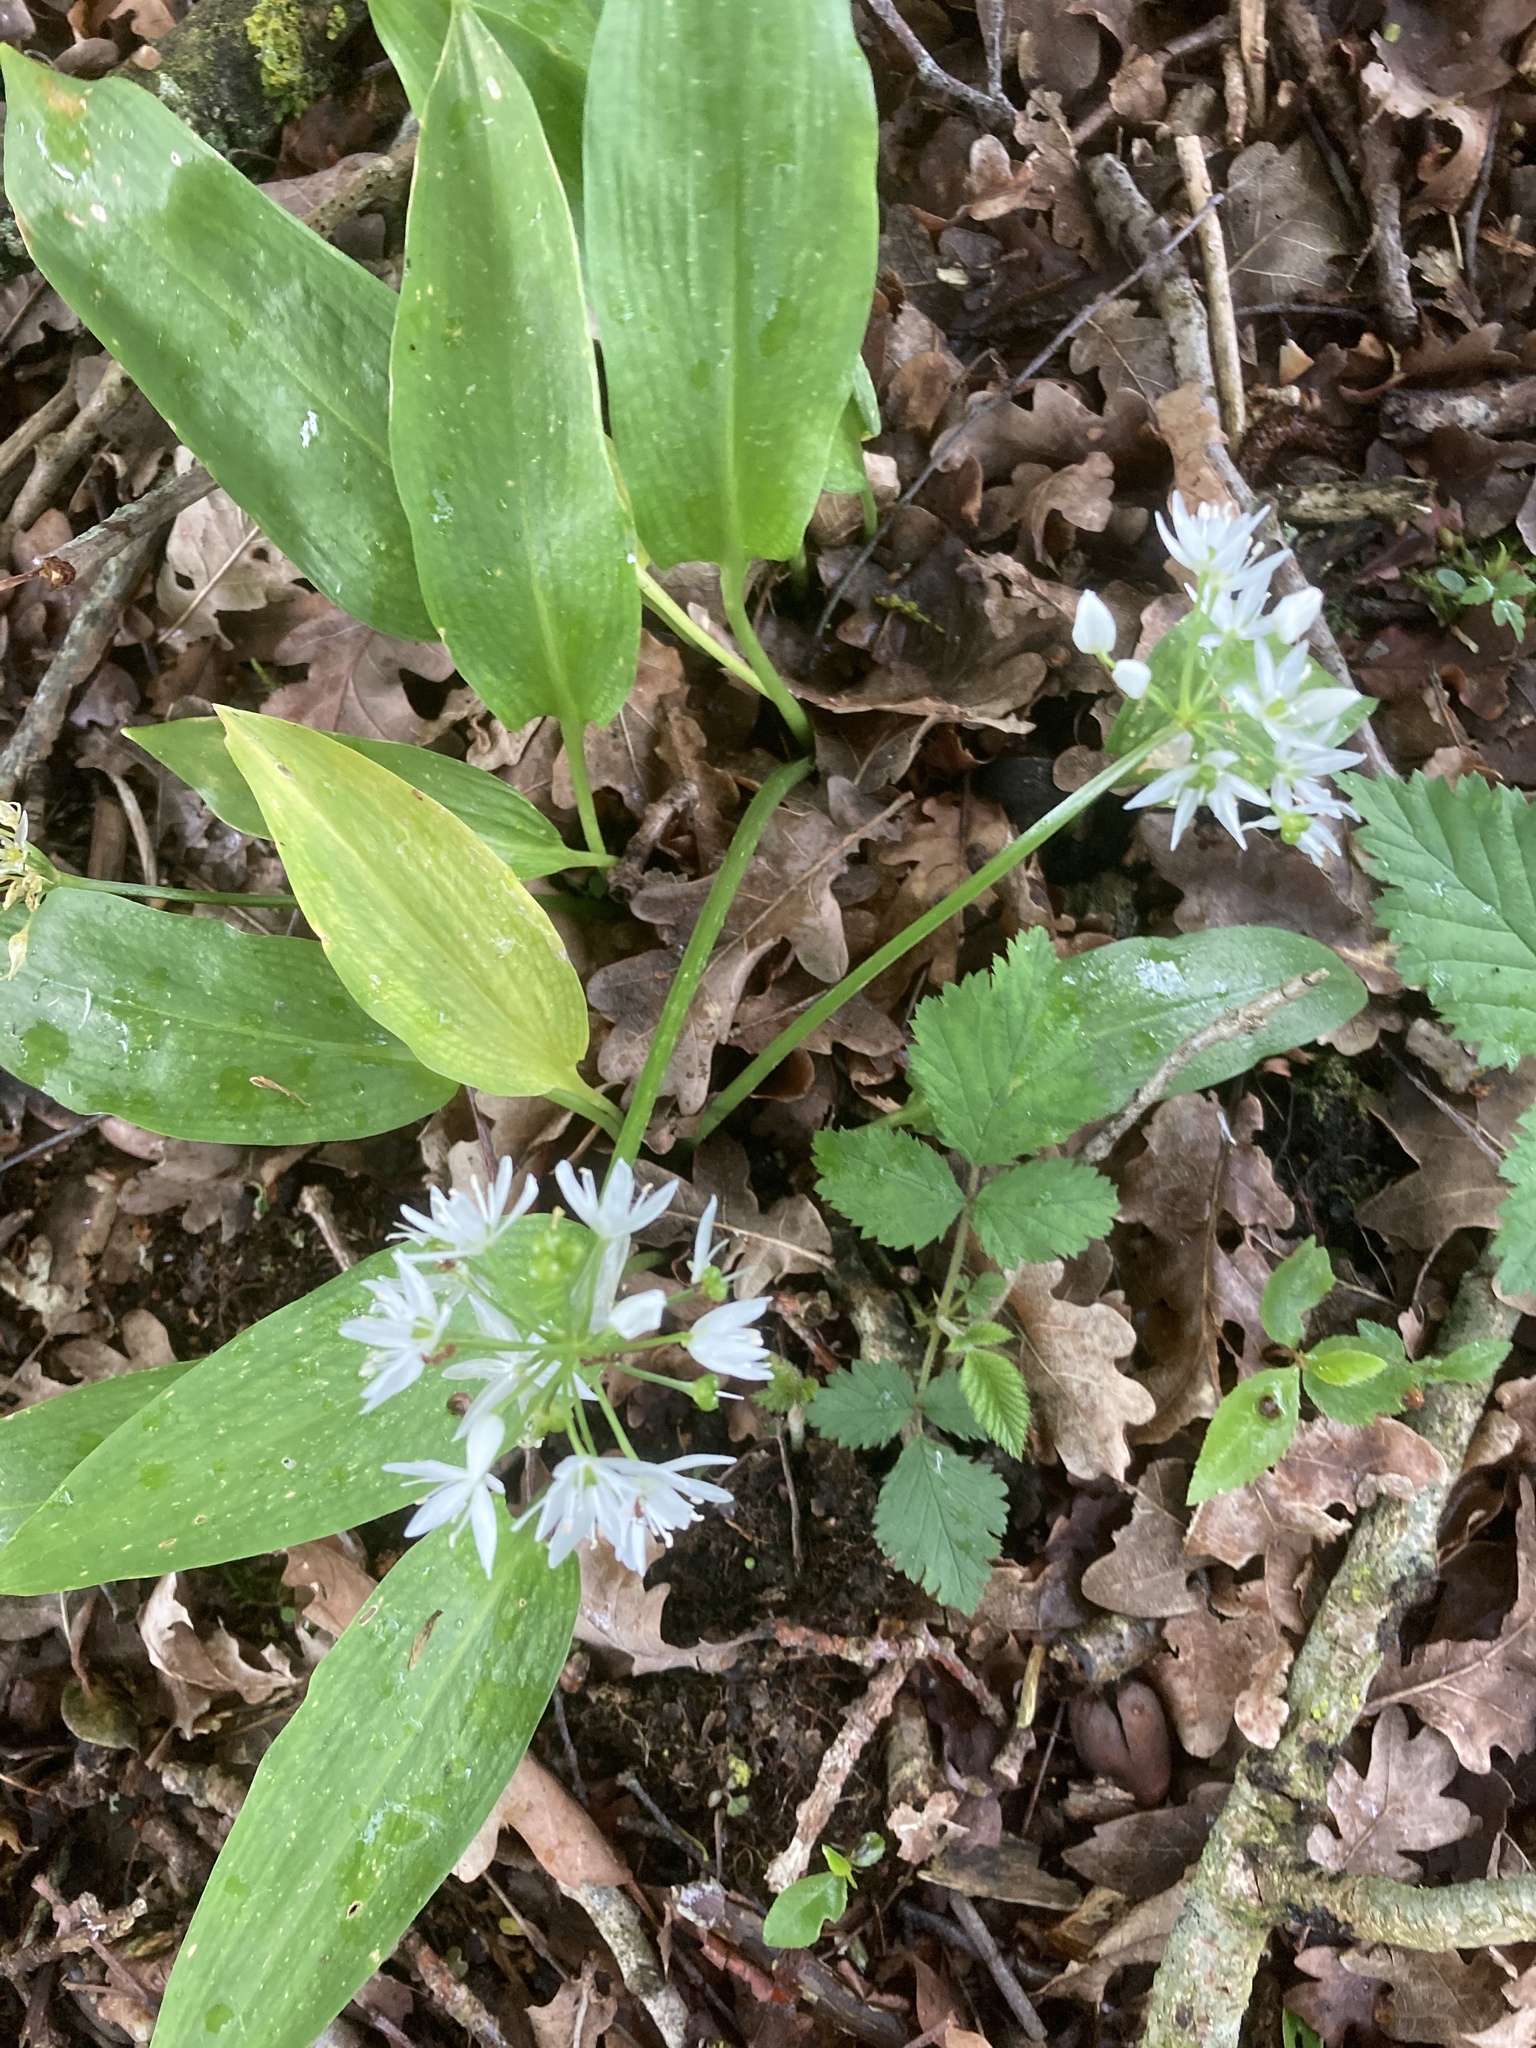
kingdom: Plantae
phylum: Tracheophyta
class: Liliopsida
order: Asparagales
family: Amaryllidaceae
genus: Allium
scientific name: Allium ursinum
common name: Ramsons
